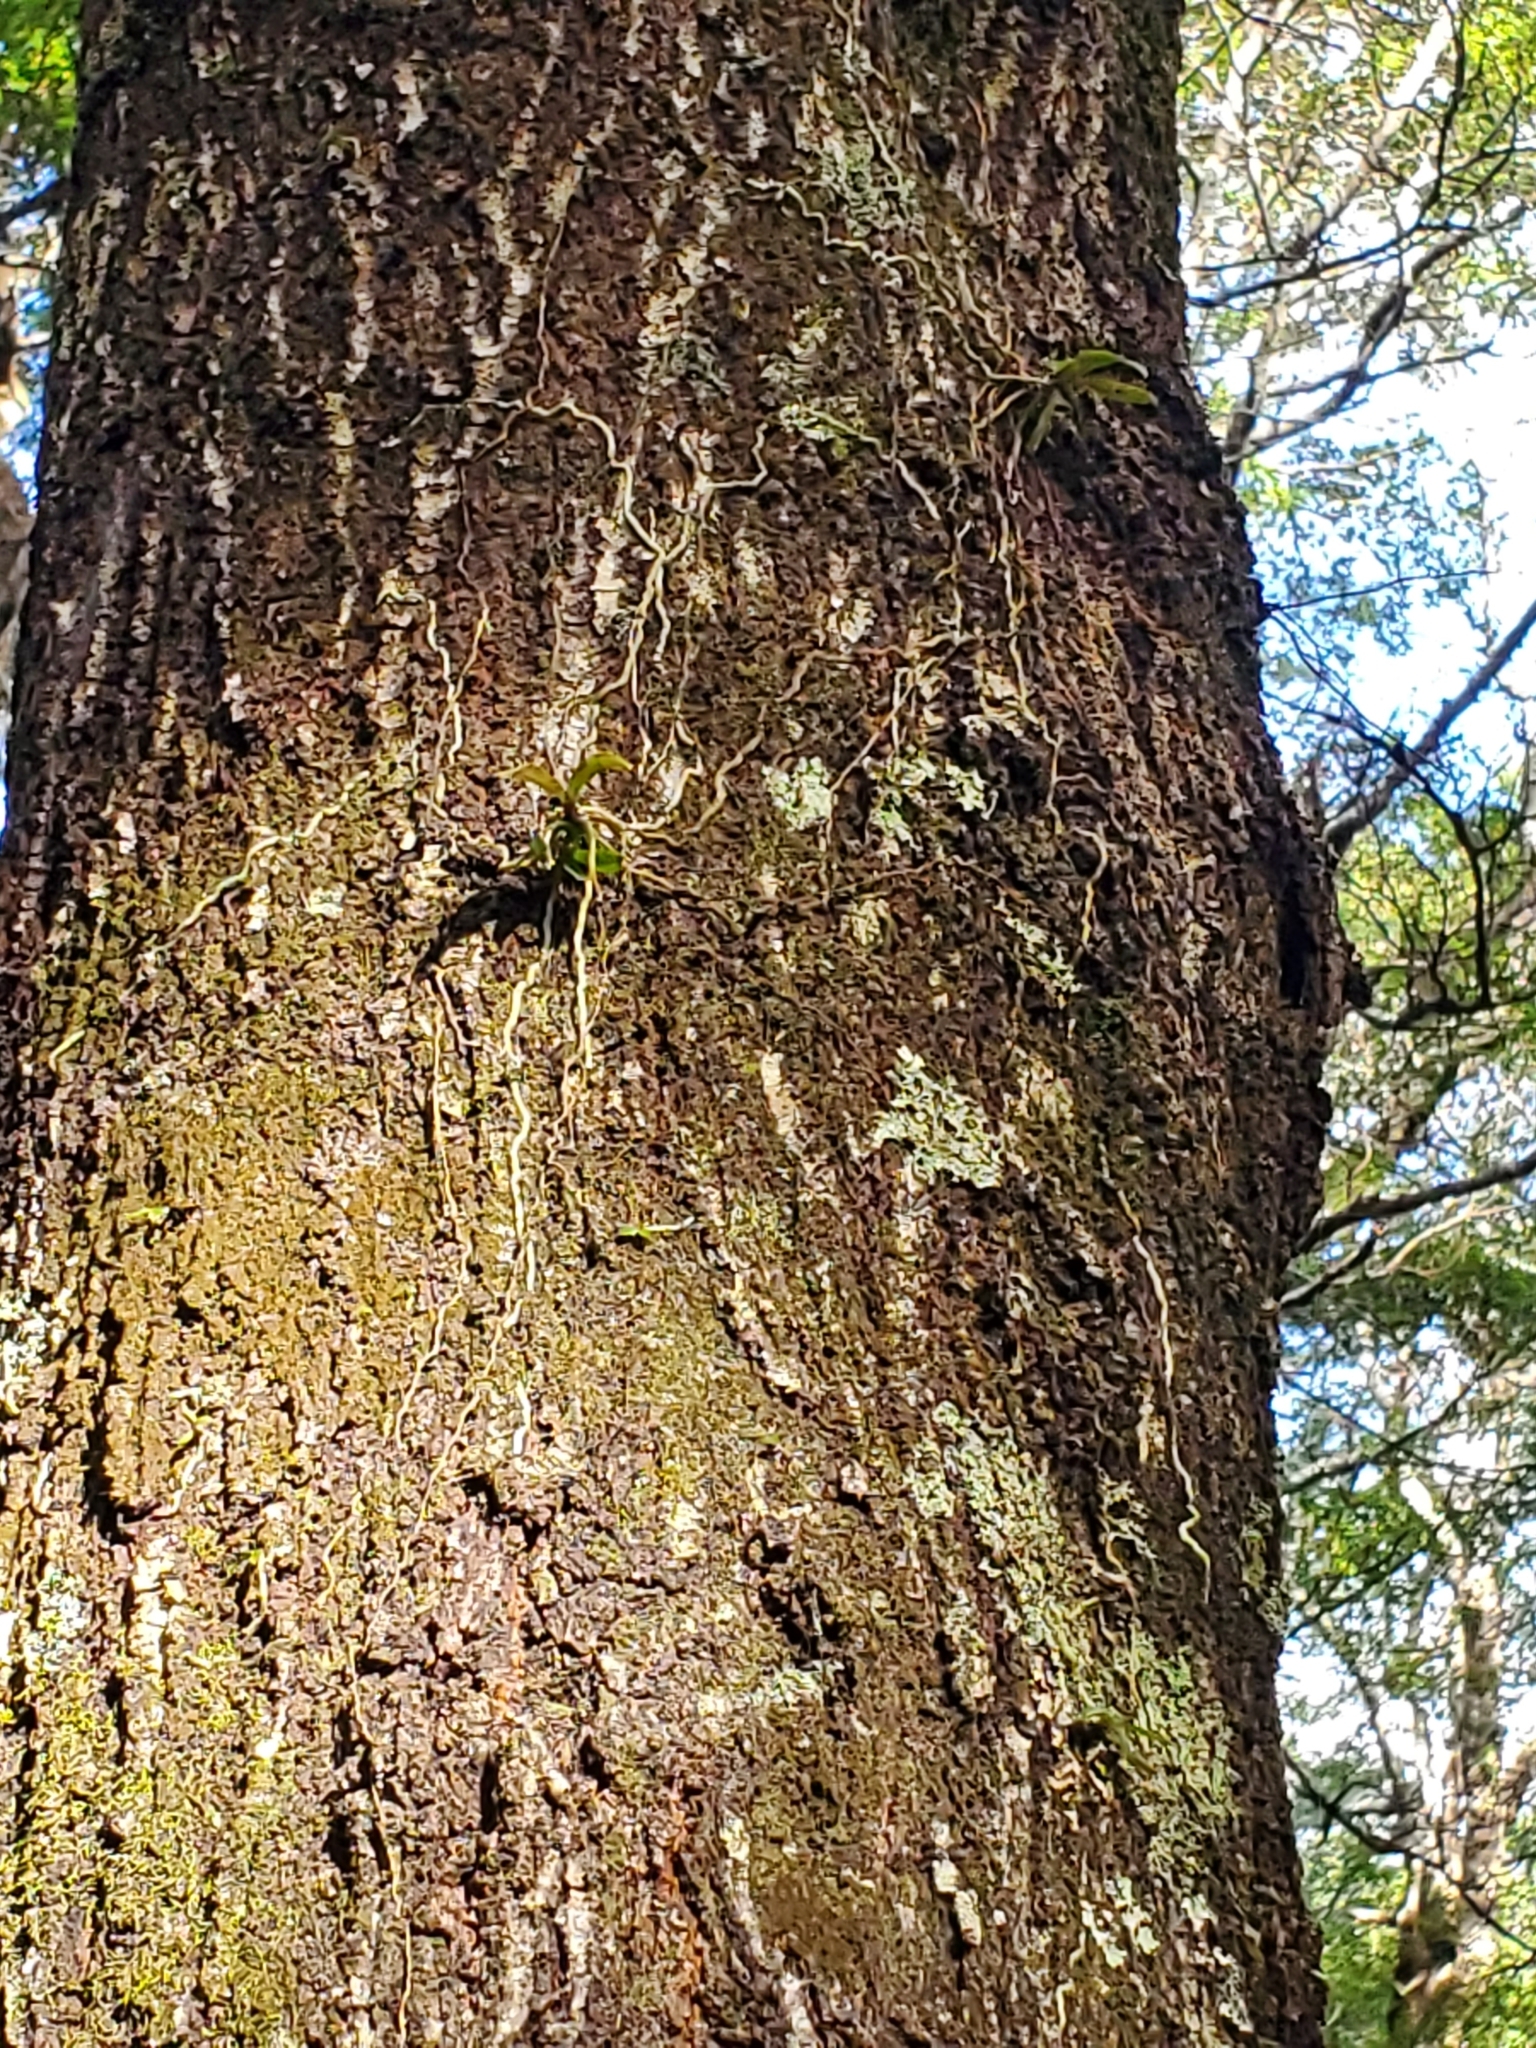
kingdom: Plantae
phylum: Tracheophyta
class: Liliopsida
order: Asparagales
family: Orchidaceae
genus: Drymoanthus
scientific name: Drymoanthus adversus
